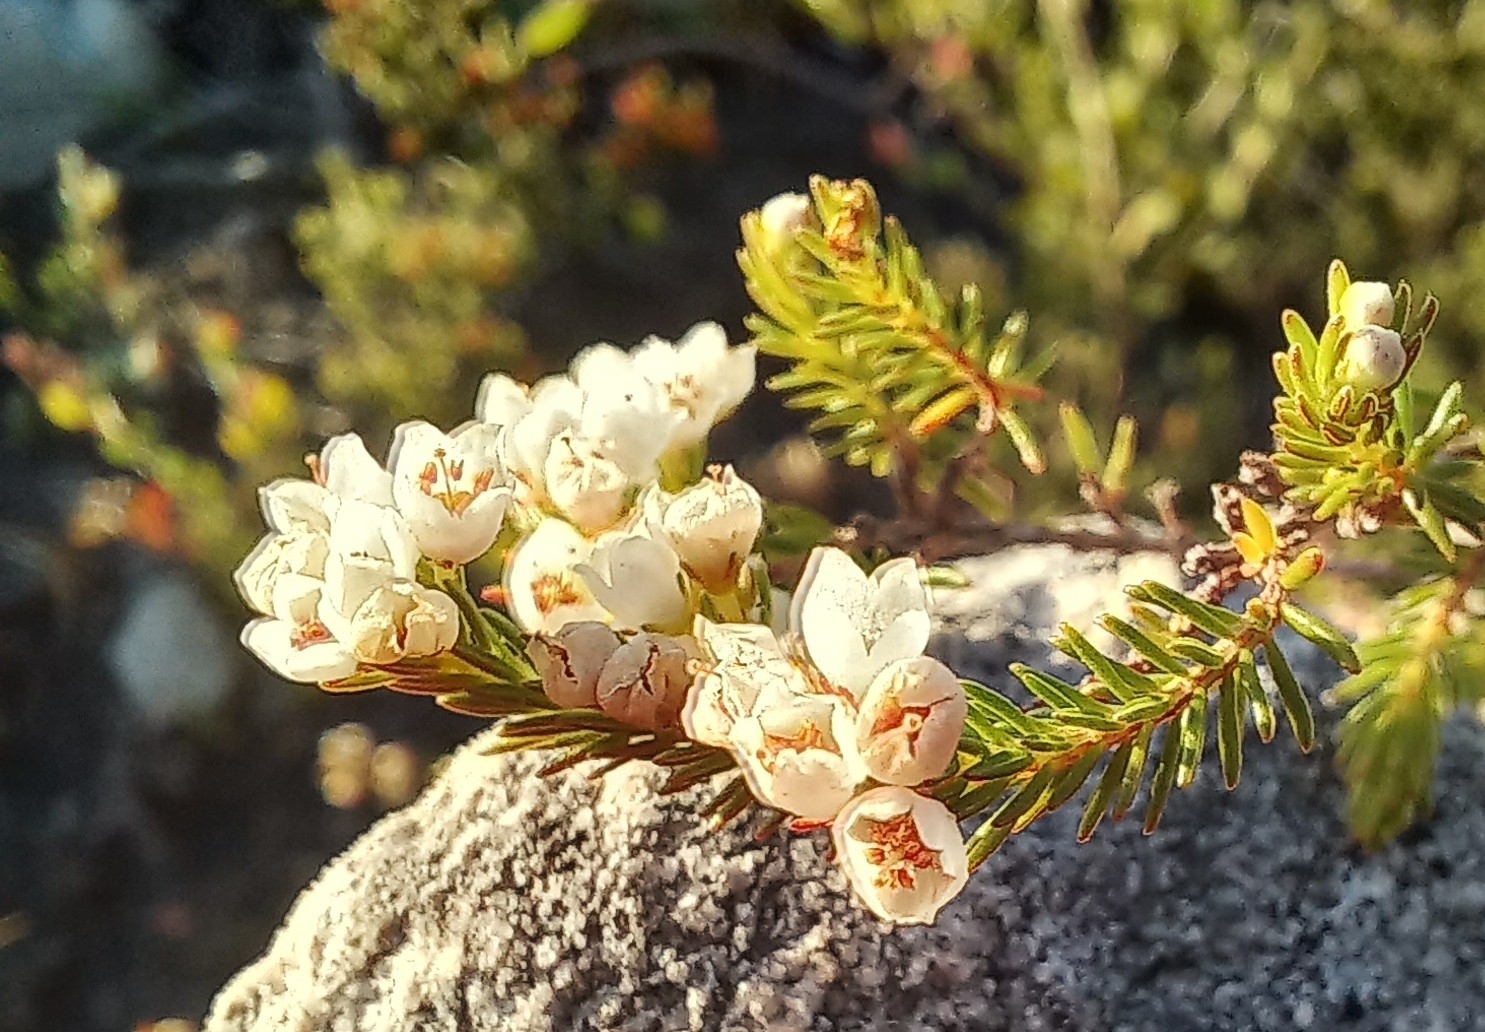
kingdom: Plantae
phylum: Tracheophyta
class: Magnoliopsida
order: Ericales
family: Ericaceae
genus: Erica
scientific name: Erica subdivaricata
